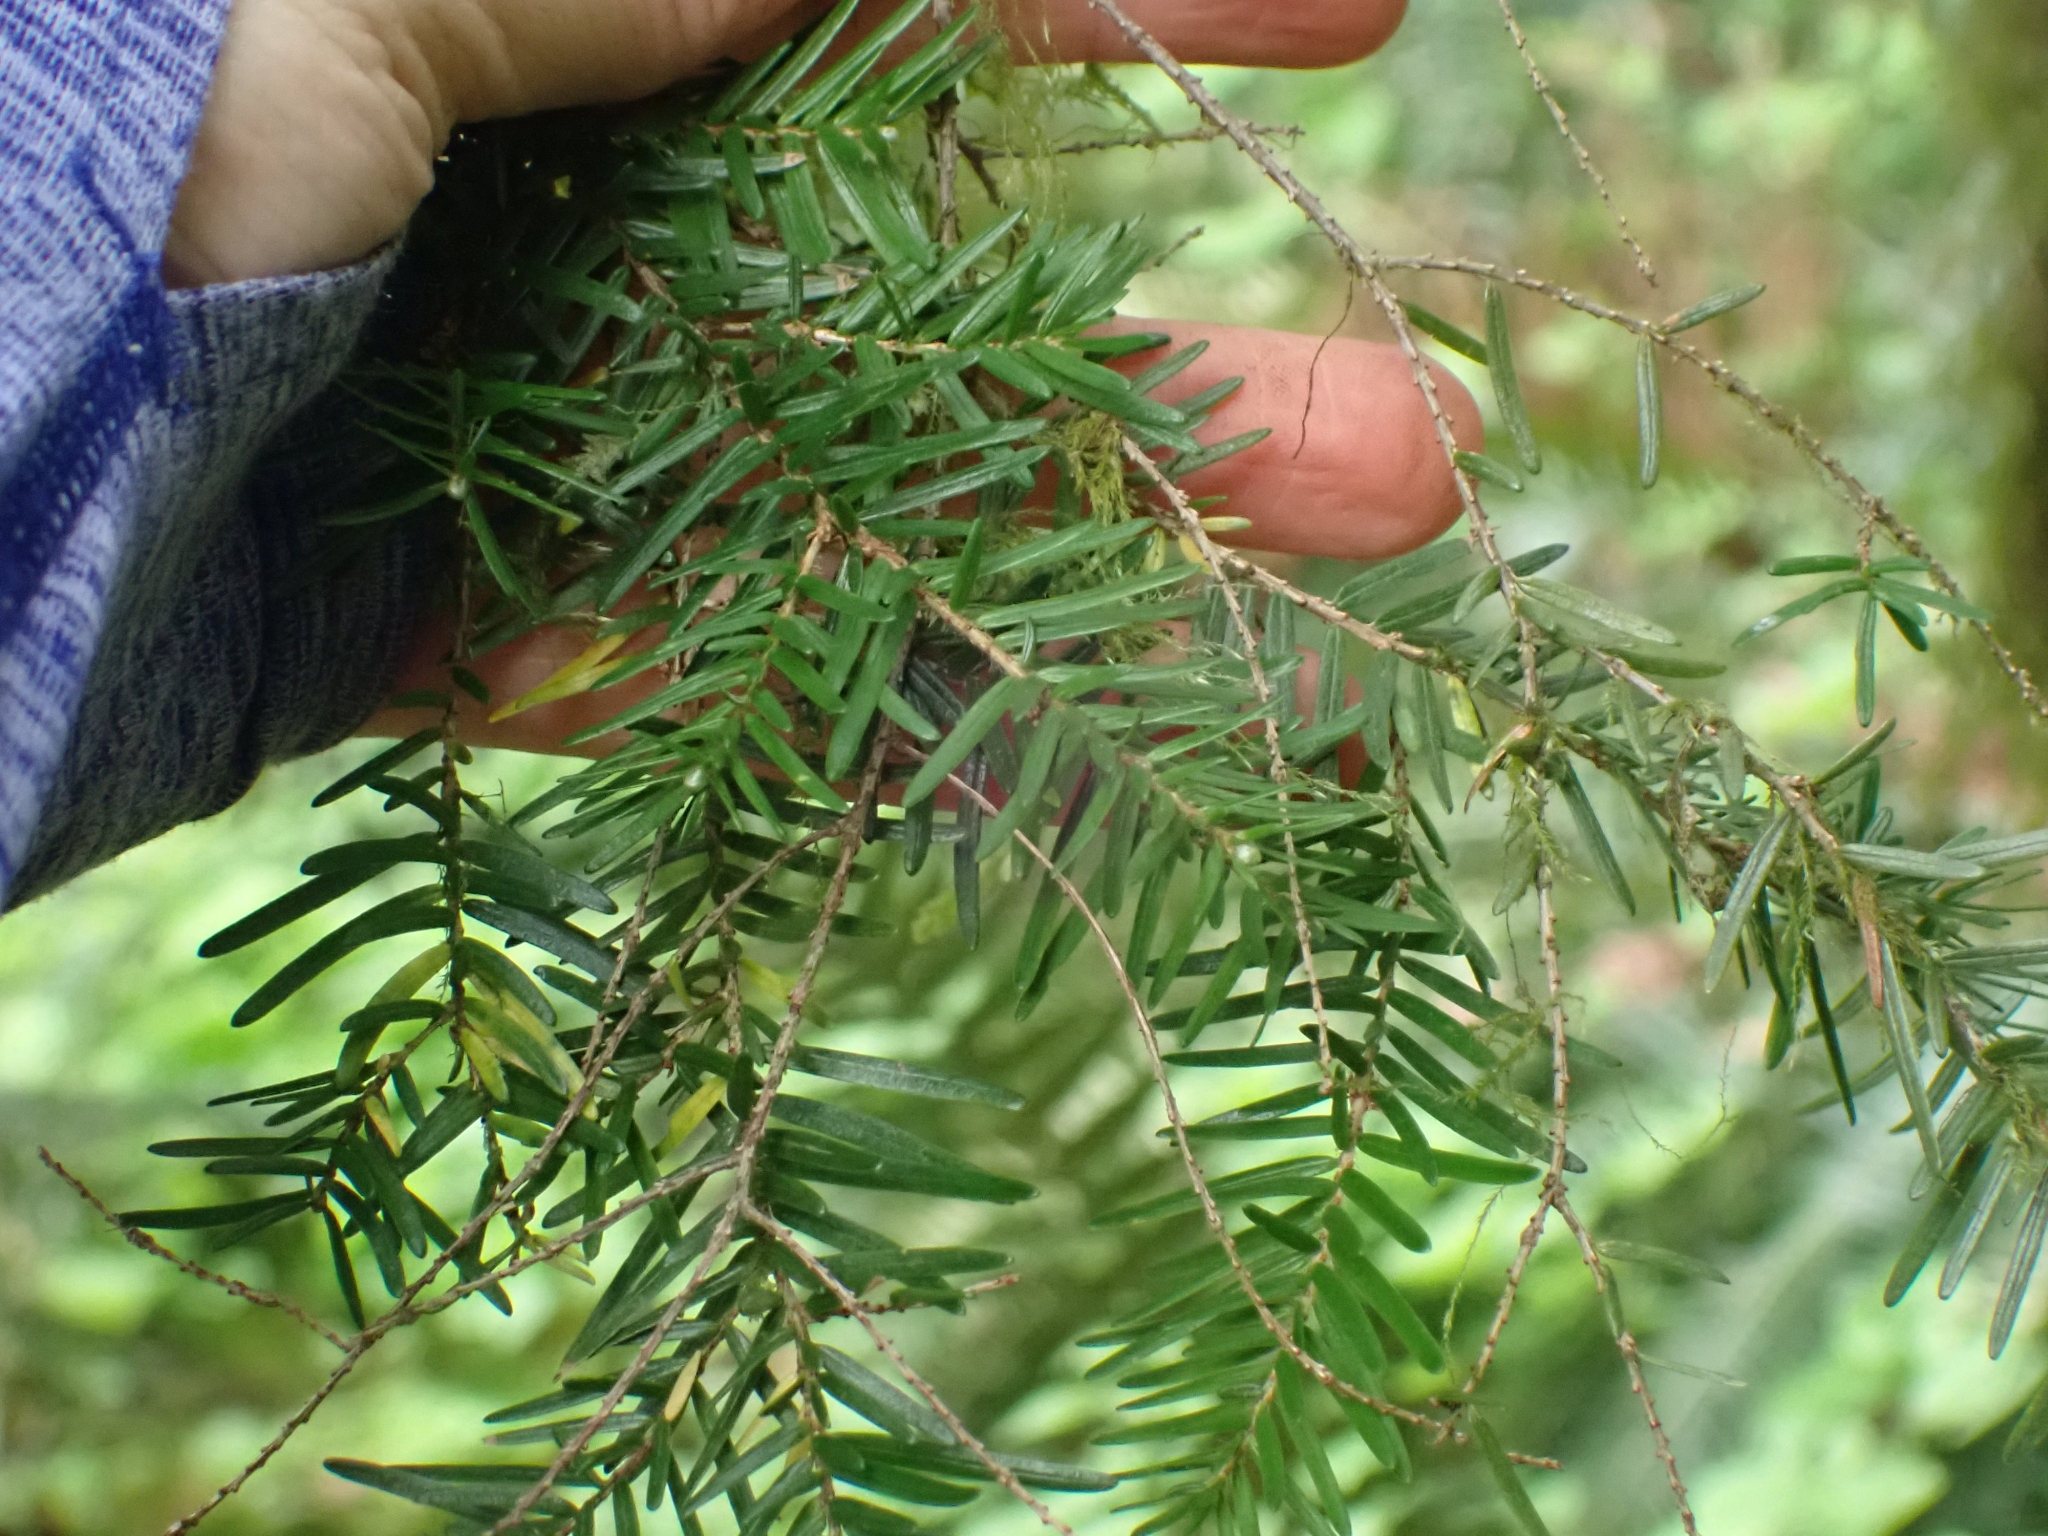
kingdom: Plantae
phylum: Tracheophyta
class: Pinopsida
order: Pinales
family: Pinaceae
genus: Tsuga
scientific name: Tsuga heterophylla
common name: Western hemlock
